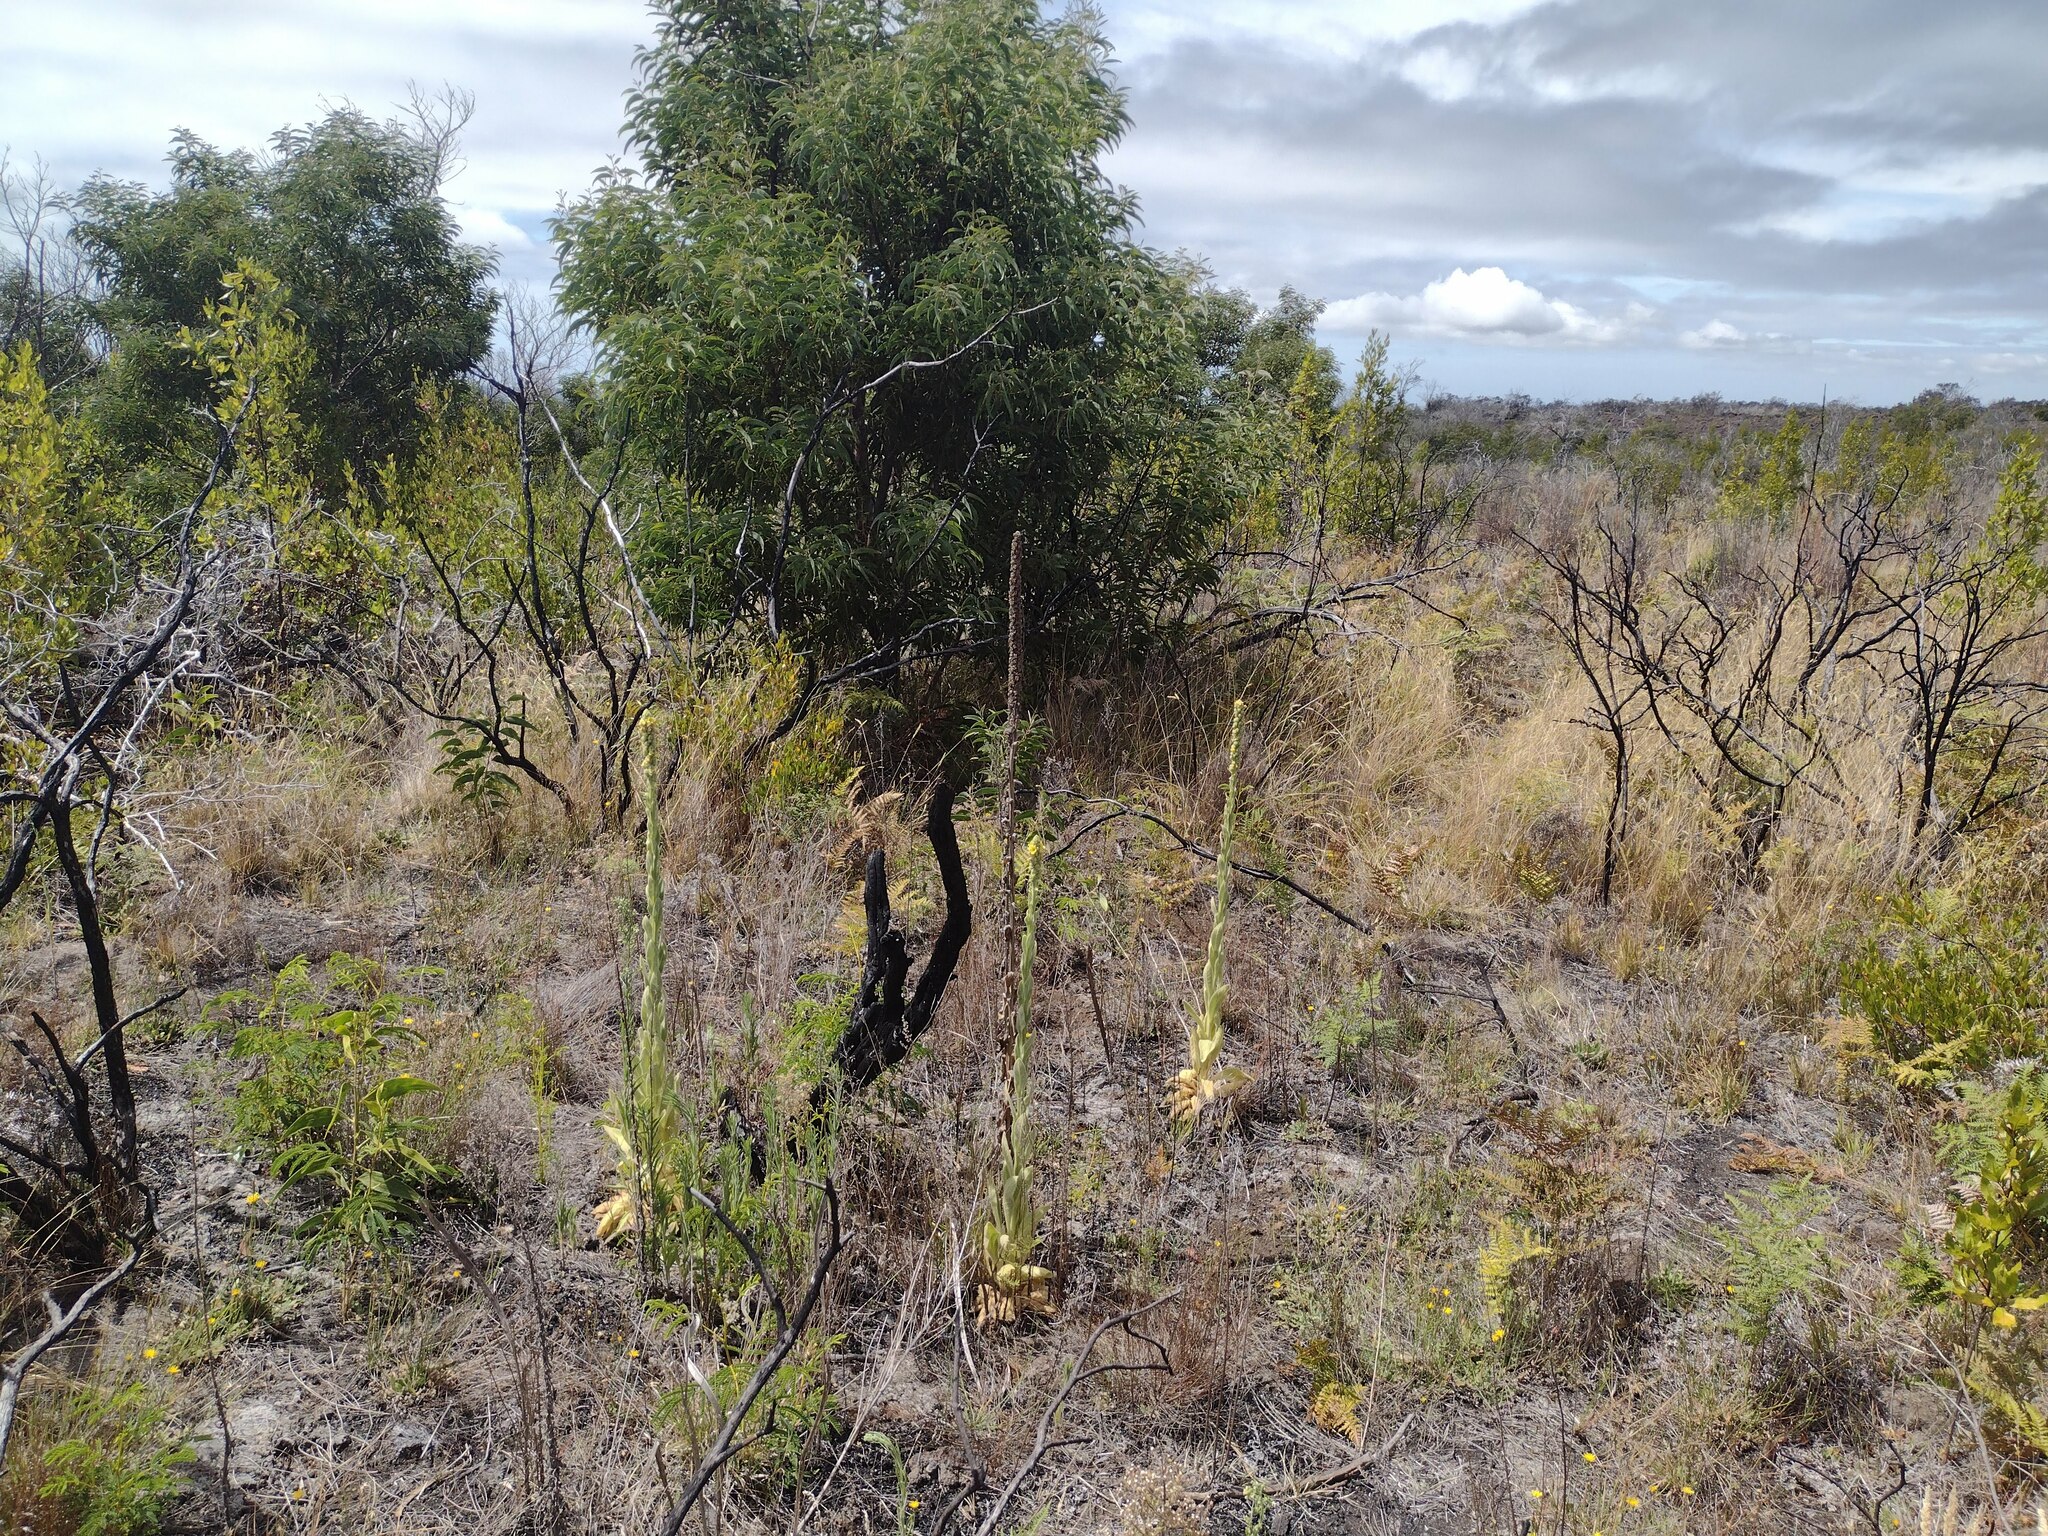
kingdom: Plantae
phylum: Tracheophyta
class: Magnoliopsida
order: Lamiales
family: Scrophulariaceae
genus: Verbascum
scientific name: Verbascum thapsus
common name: Common mullein
